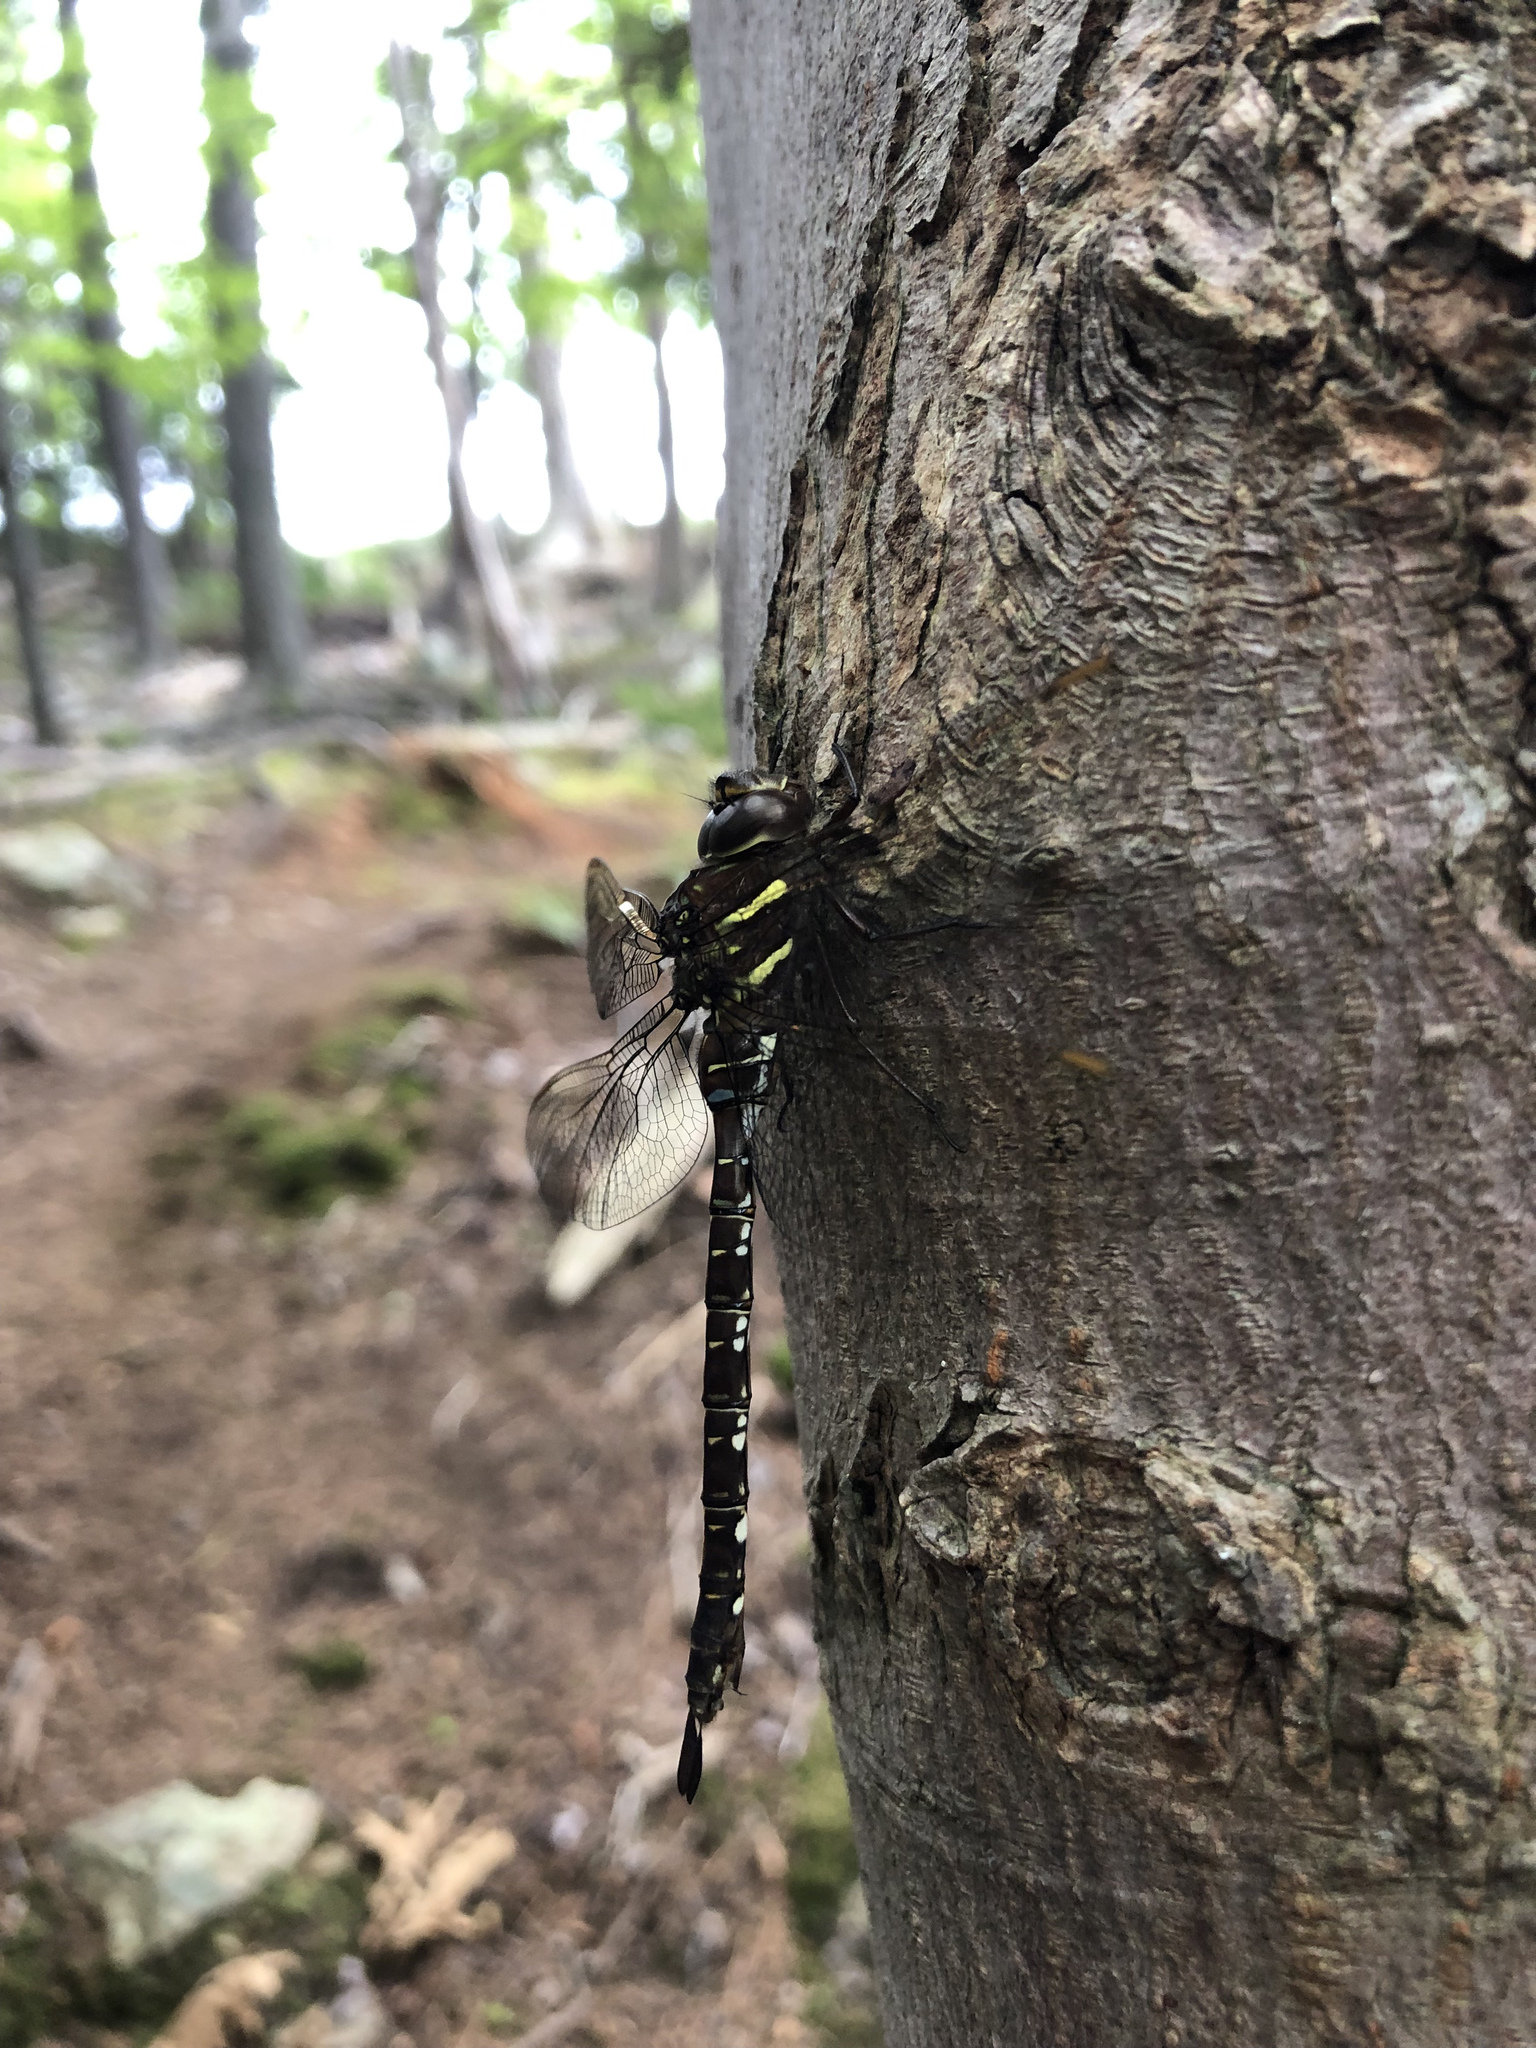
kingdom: Animalia
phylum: Arthropoda
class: Insecta
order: Odonata
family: Aeshnidae
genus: Aeshna
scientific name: Aeshna umbrosa
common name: Shadow darner
